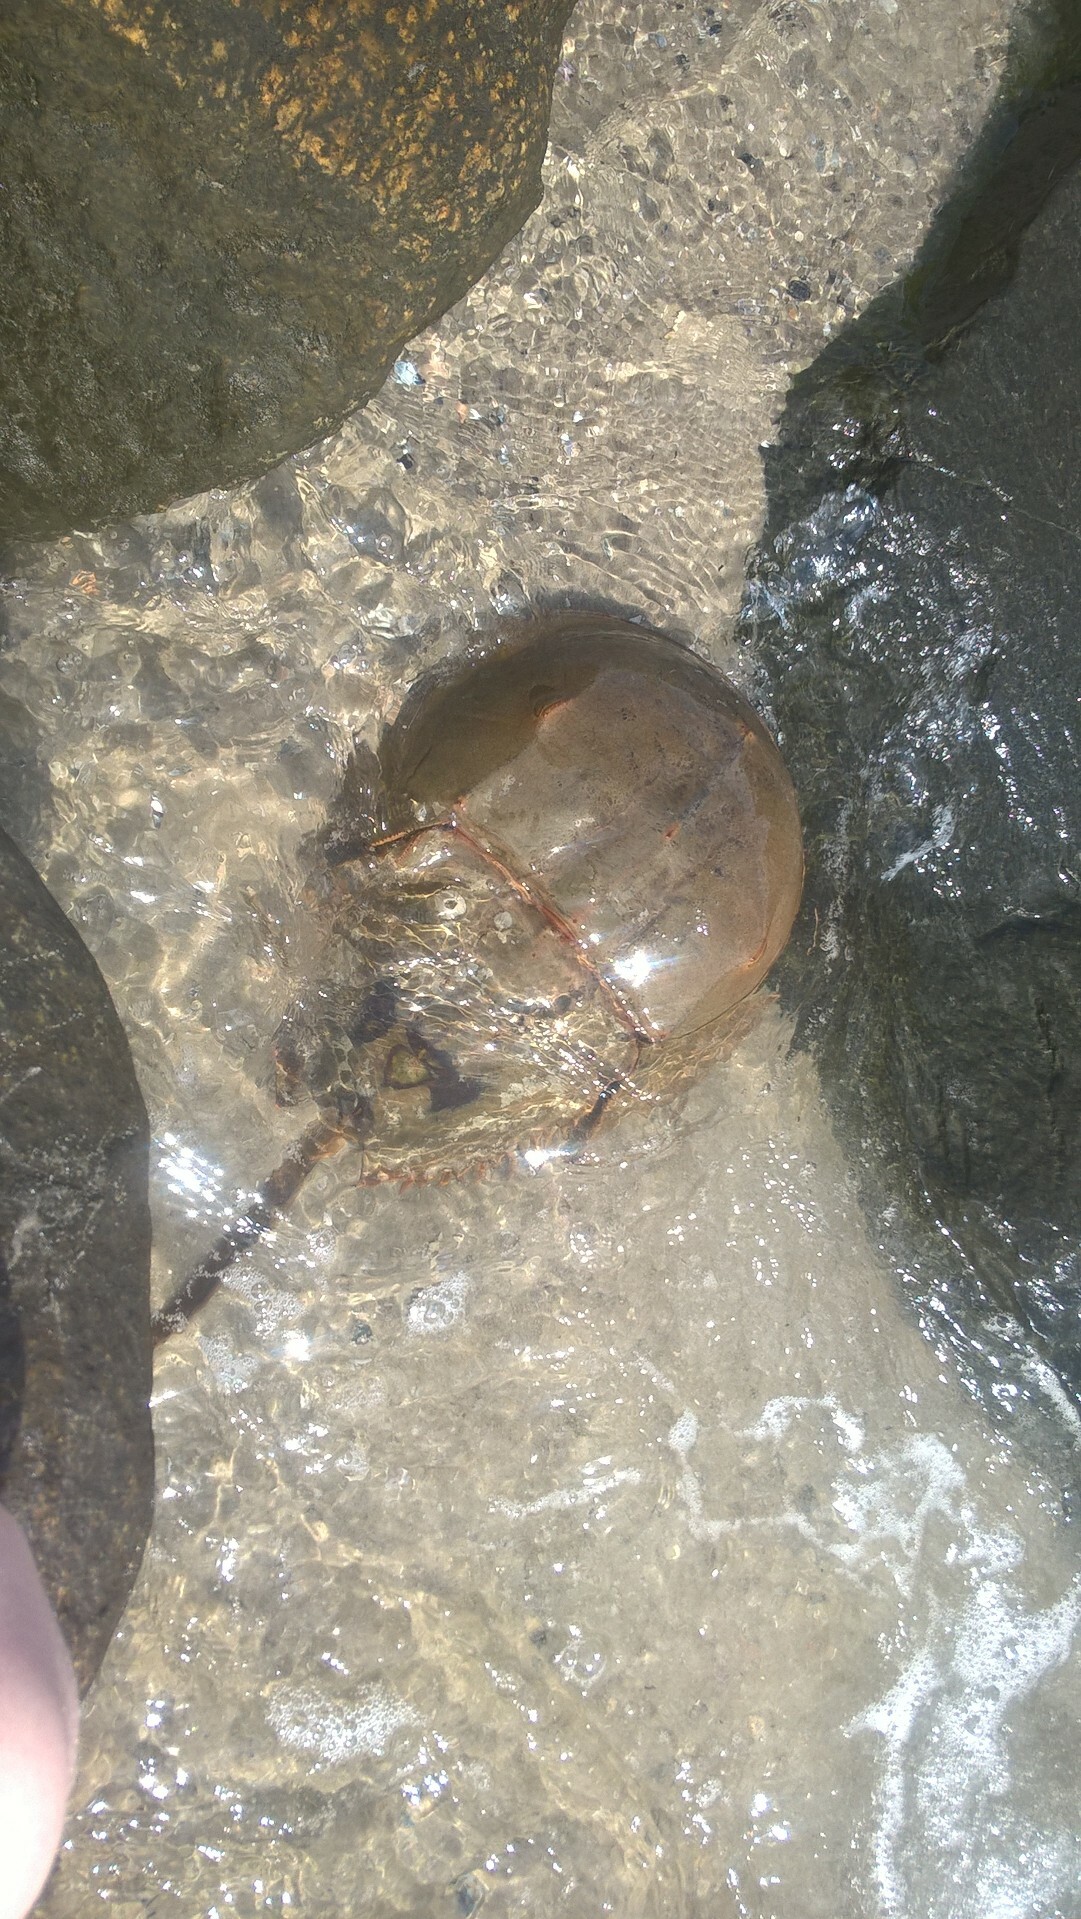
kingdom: Animalia
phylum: Arthropoda
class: Merostomata
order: Xiphosurida
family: Limulidae
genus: Limulus
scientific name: Limulus polyphemus
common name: Horseshoe crab
